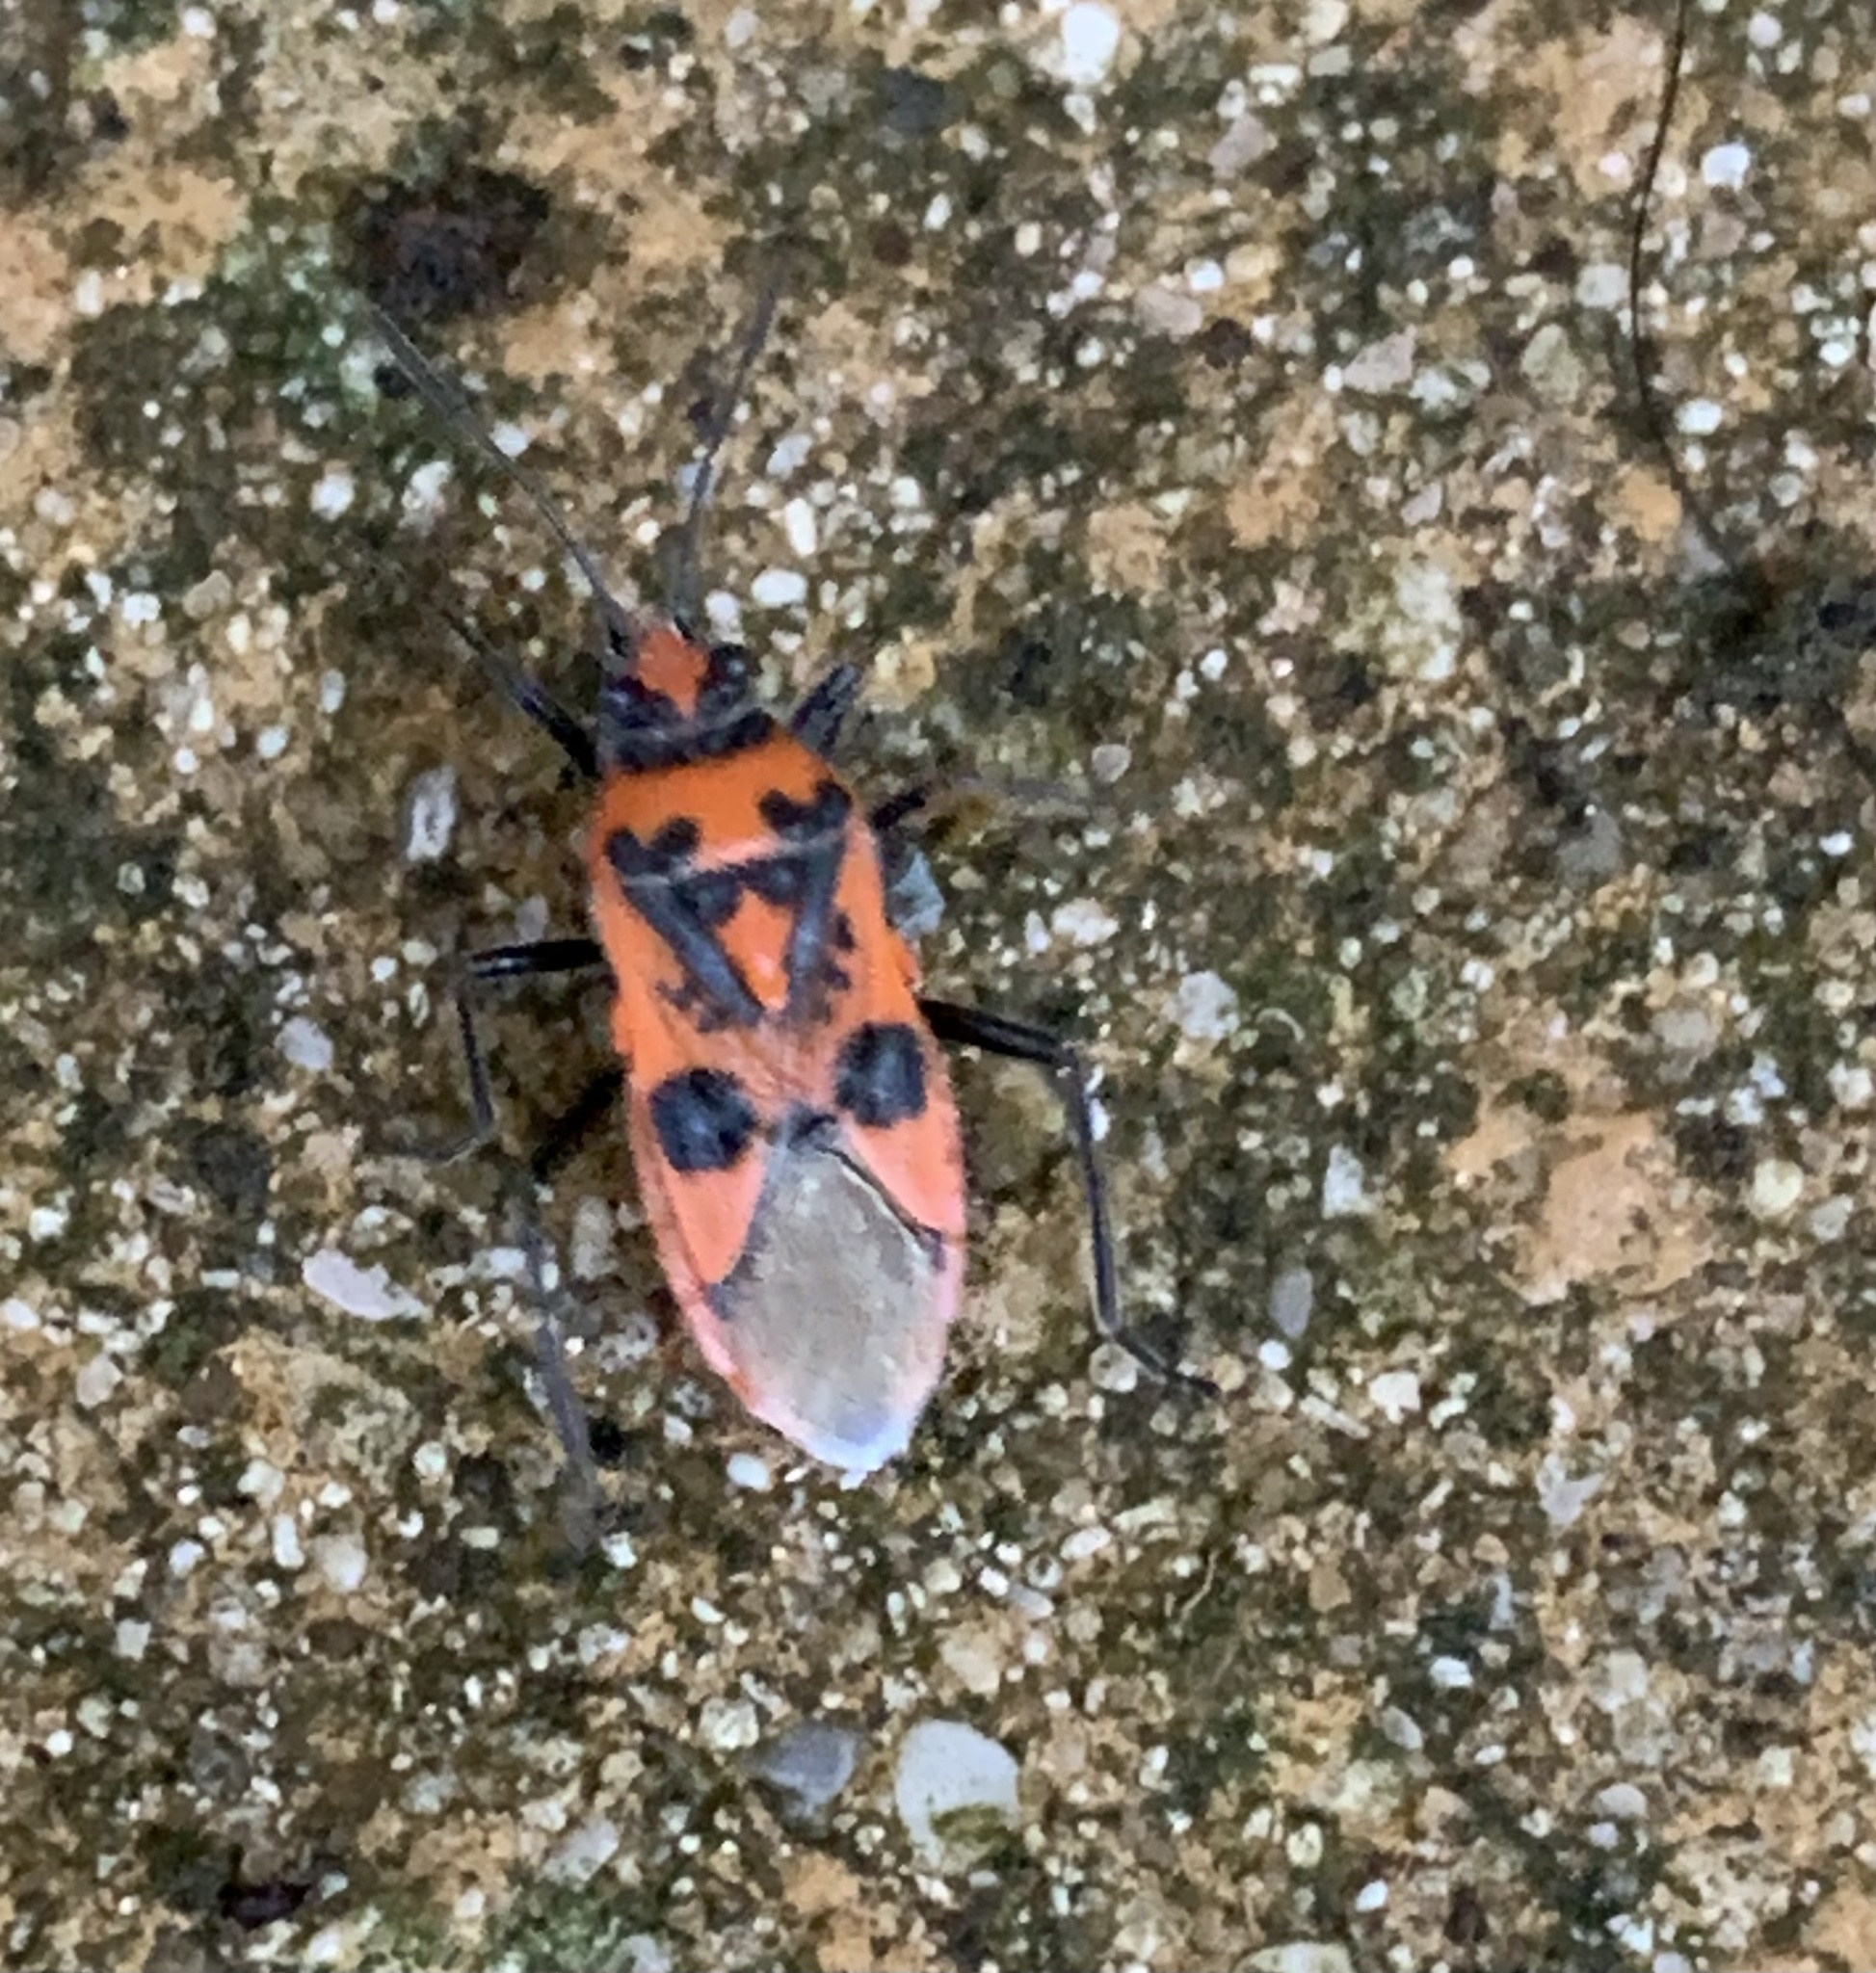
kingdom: Animalia
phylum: Arthropoda
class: Insecta
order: Hemiptera
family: Rhopalidae
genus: Corizus
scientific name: Corizus hyoscyami
